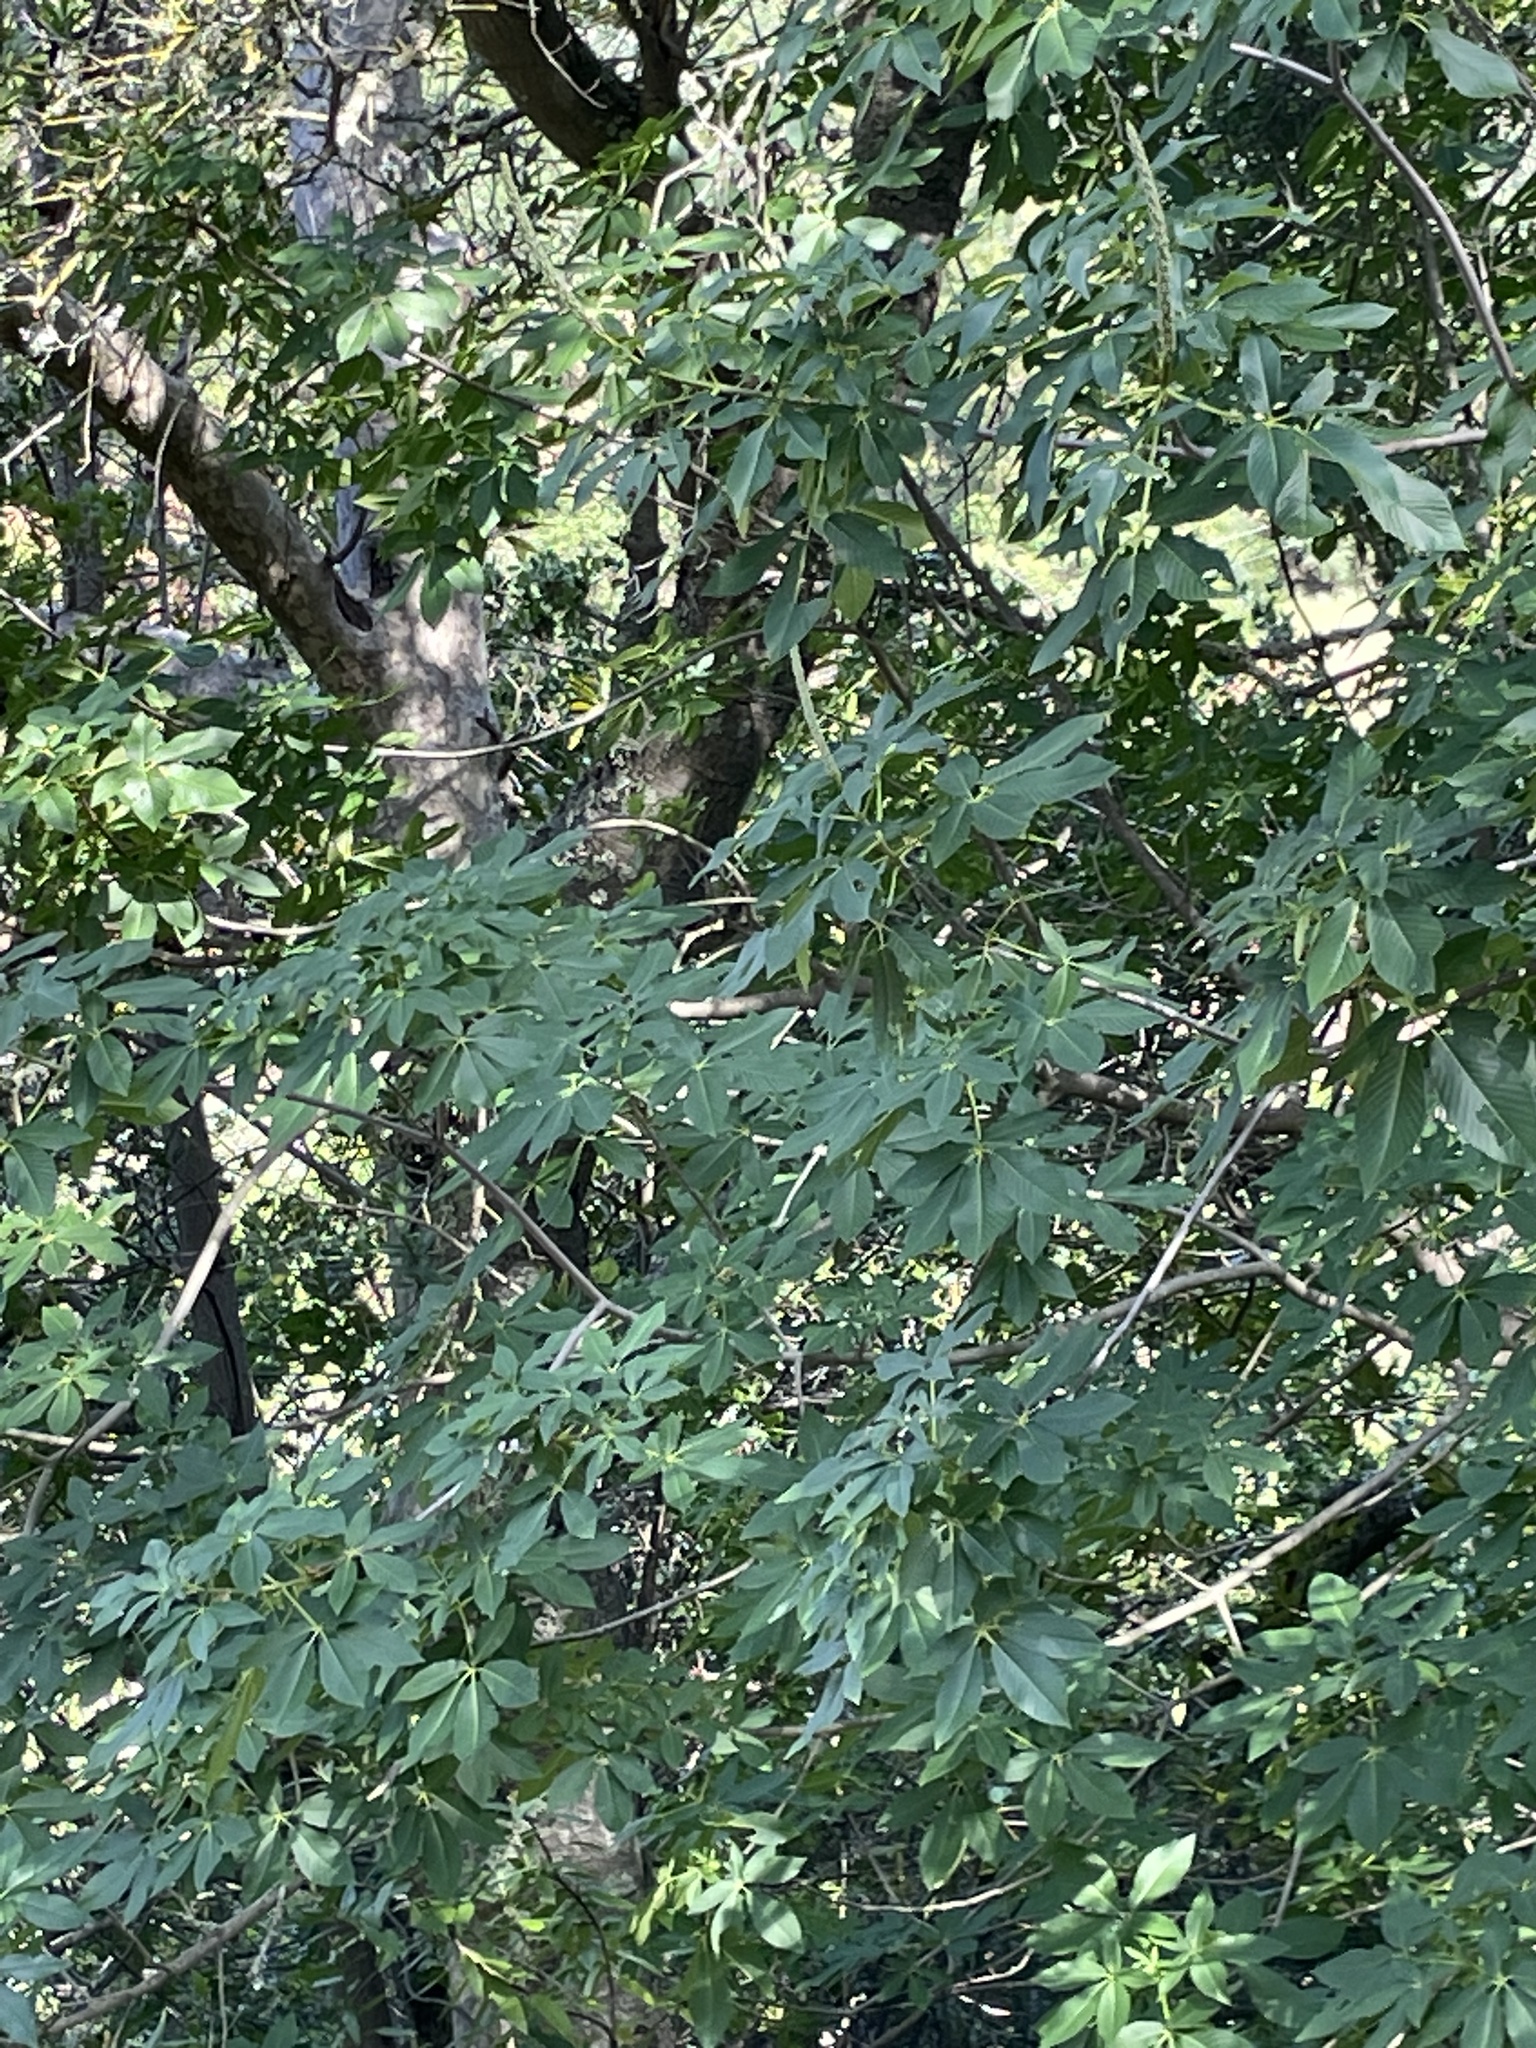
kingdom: Plantae
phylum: Tracheophyta
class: Magnoliopsida
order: Sapindales
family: Sapindaceae
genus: Aesculus
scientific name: Aesculus californica
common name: California buckeye
